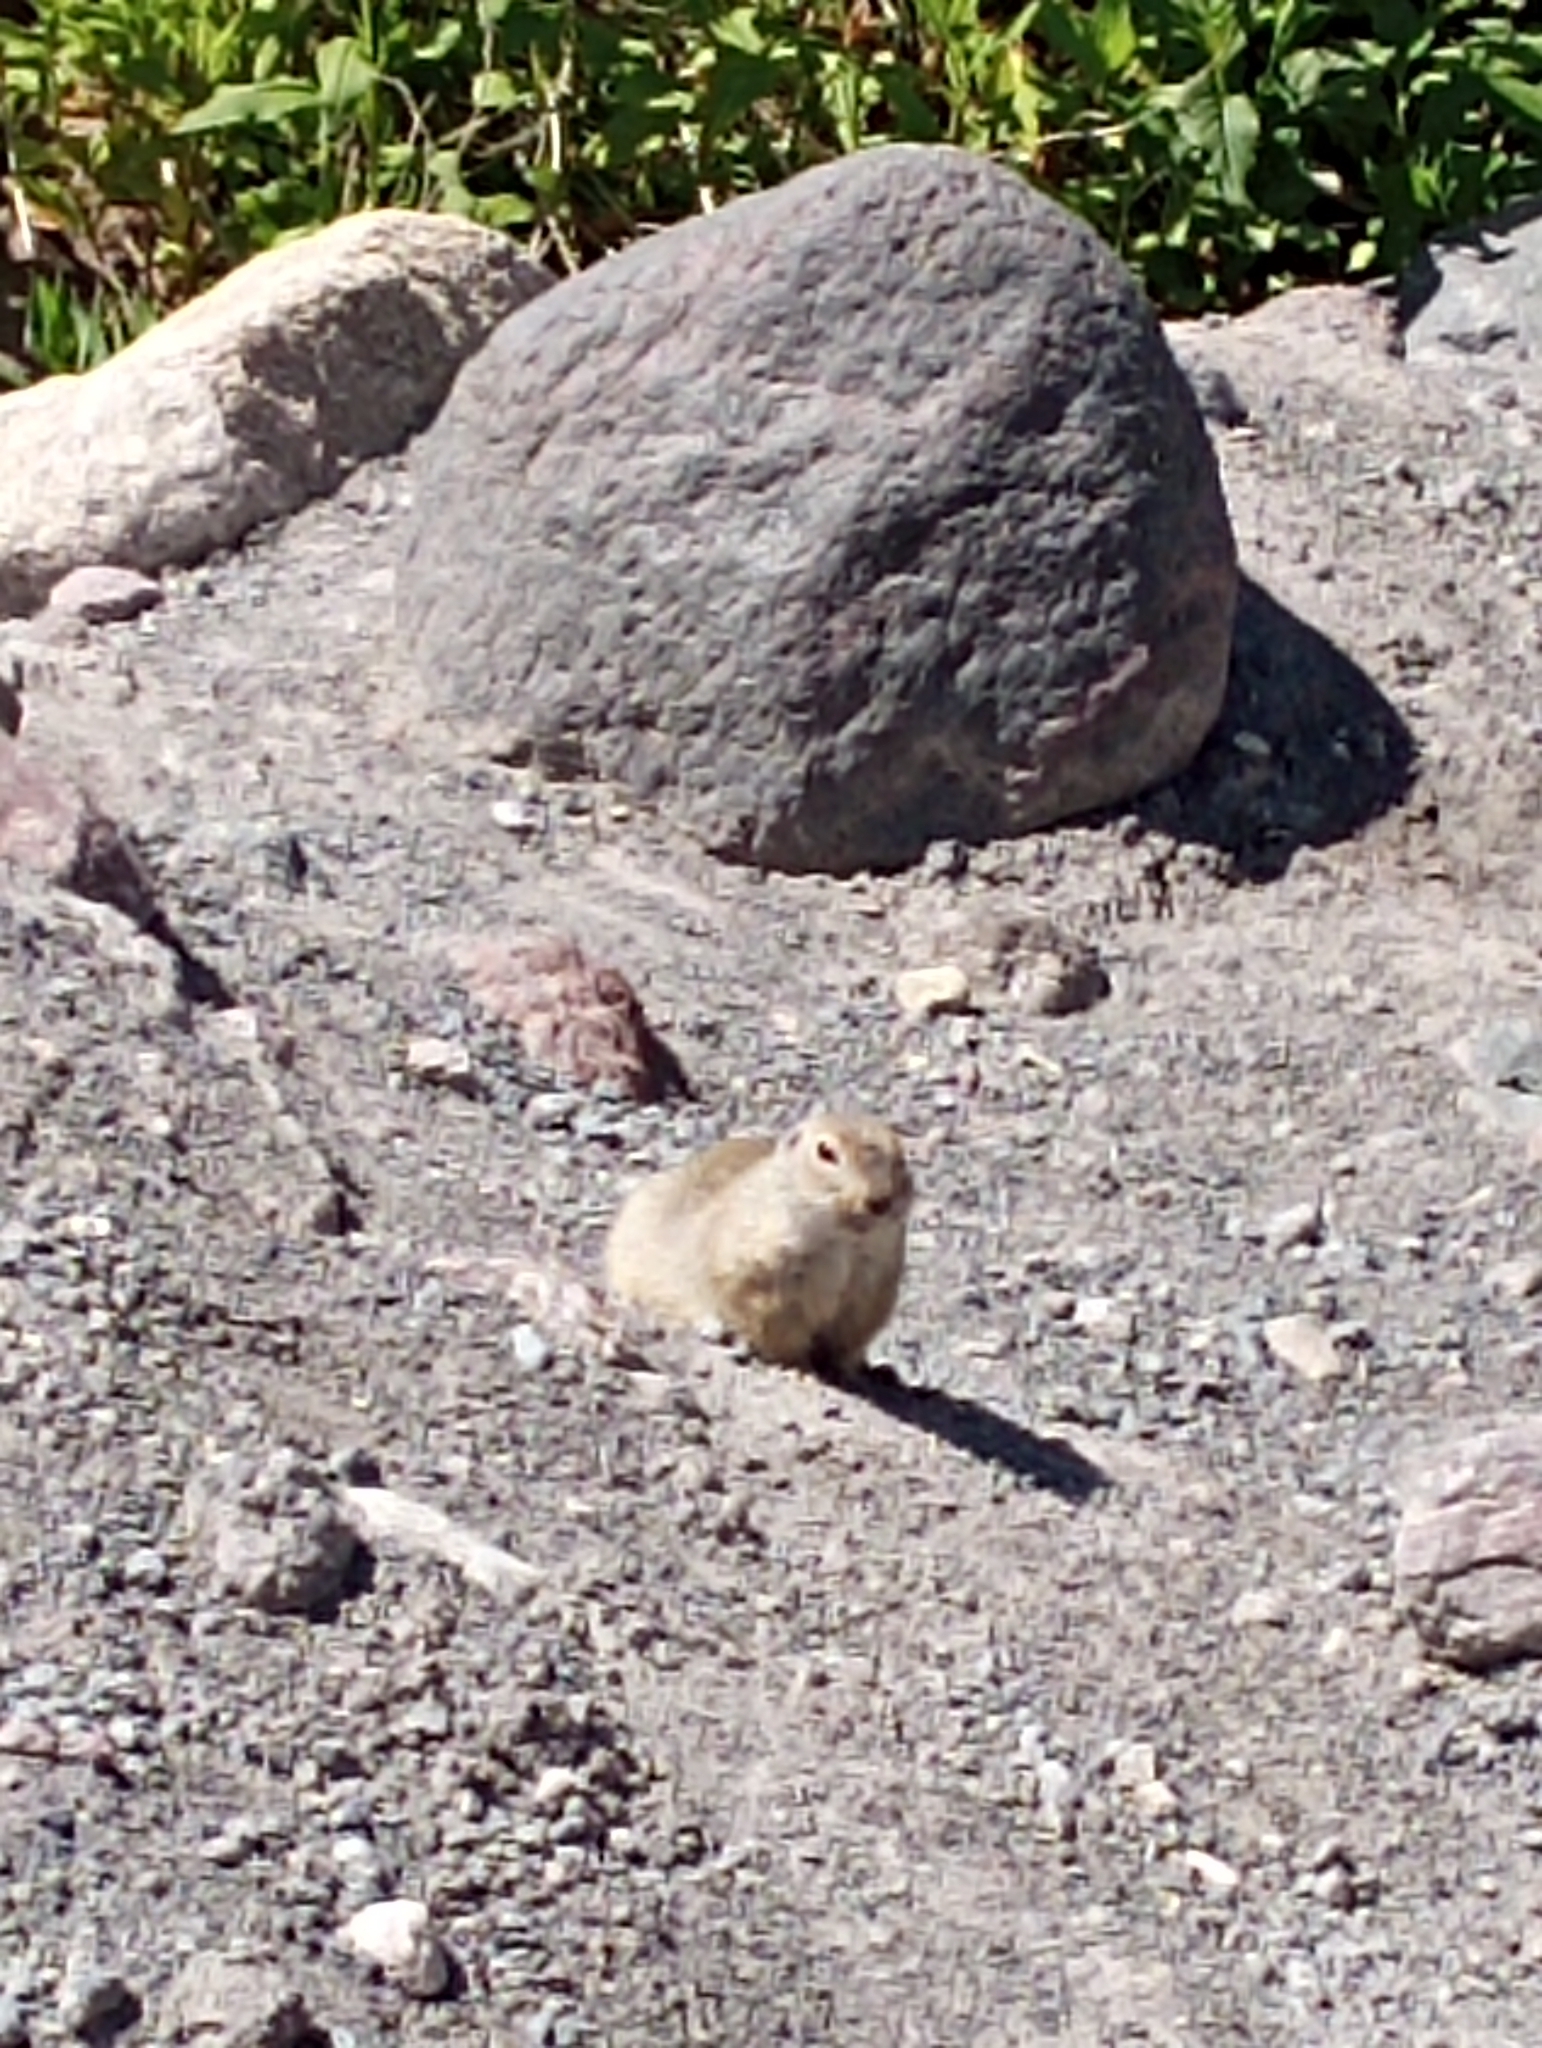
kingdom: Animalia
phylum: Chordata
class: Mammalia
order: Rodentia
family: Sciuridae
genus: Spermophilus
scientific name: Spermophilus musicus
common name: Caucasian mountain ground squirrel
